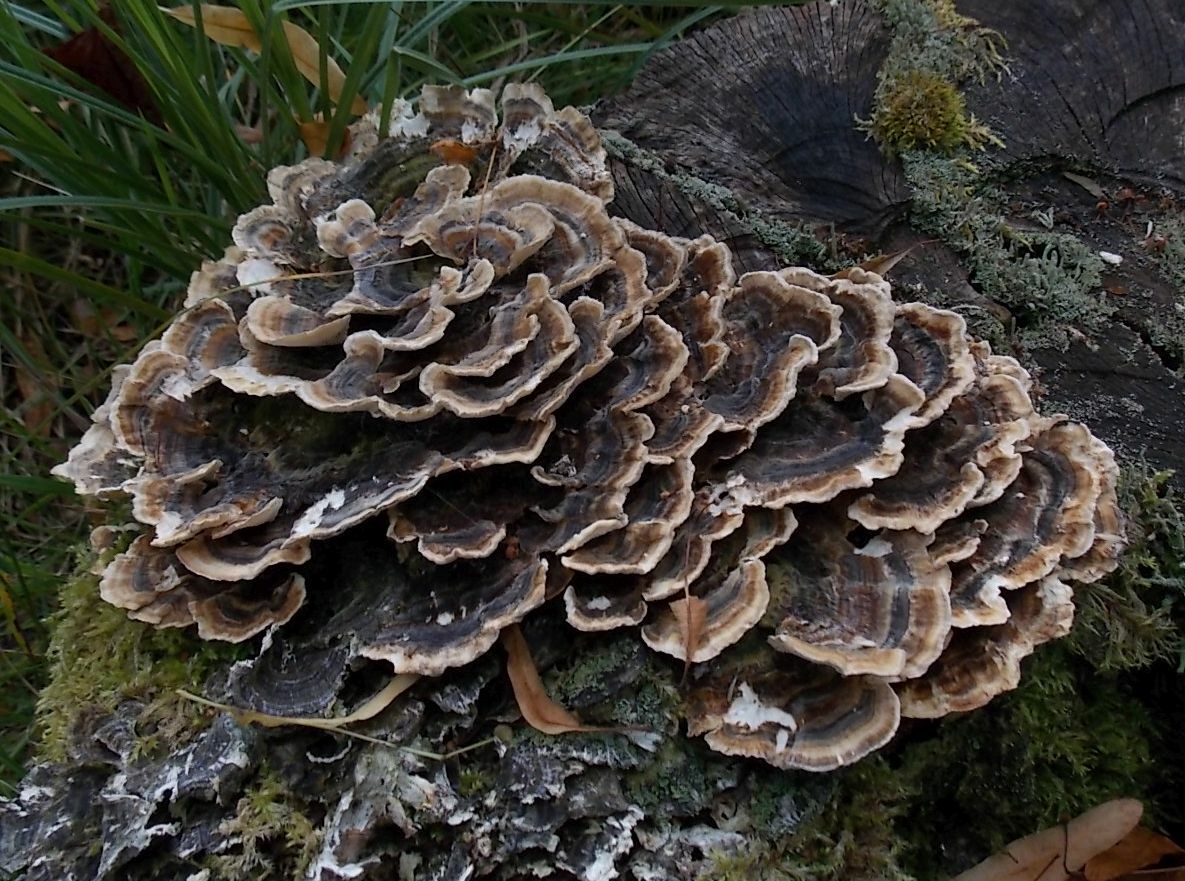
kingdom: Fungi
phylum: Basidiomycota
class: Agaricomycetes
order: Polyporales
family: Polyporaceae
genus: Trametes
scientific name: Trametes versicolor
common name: Turkeytail
